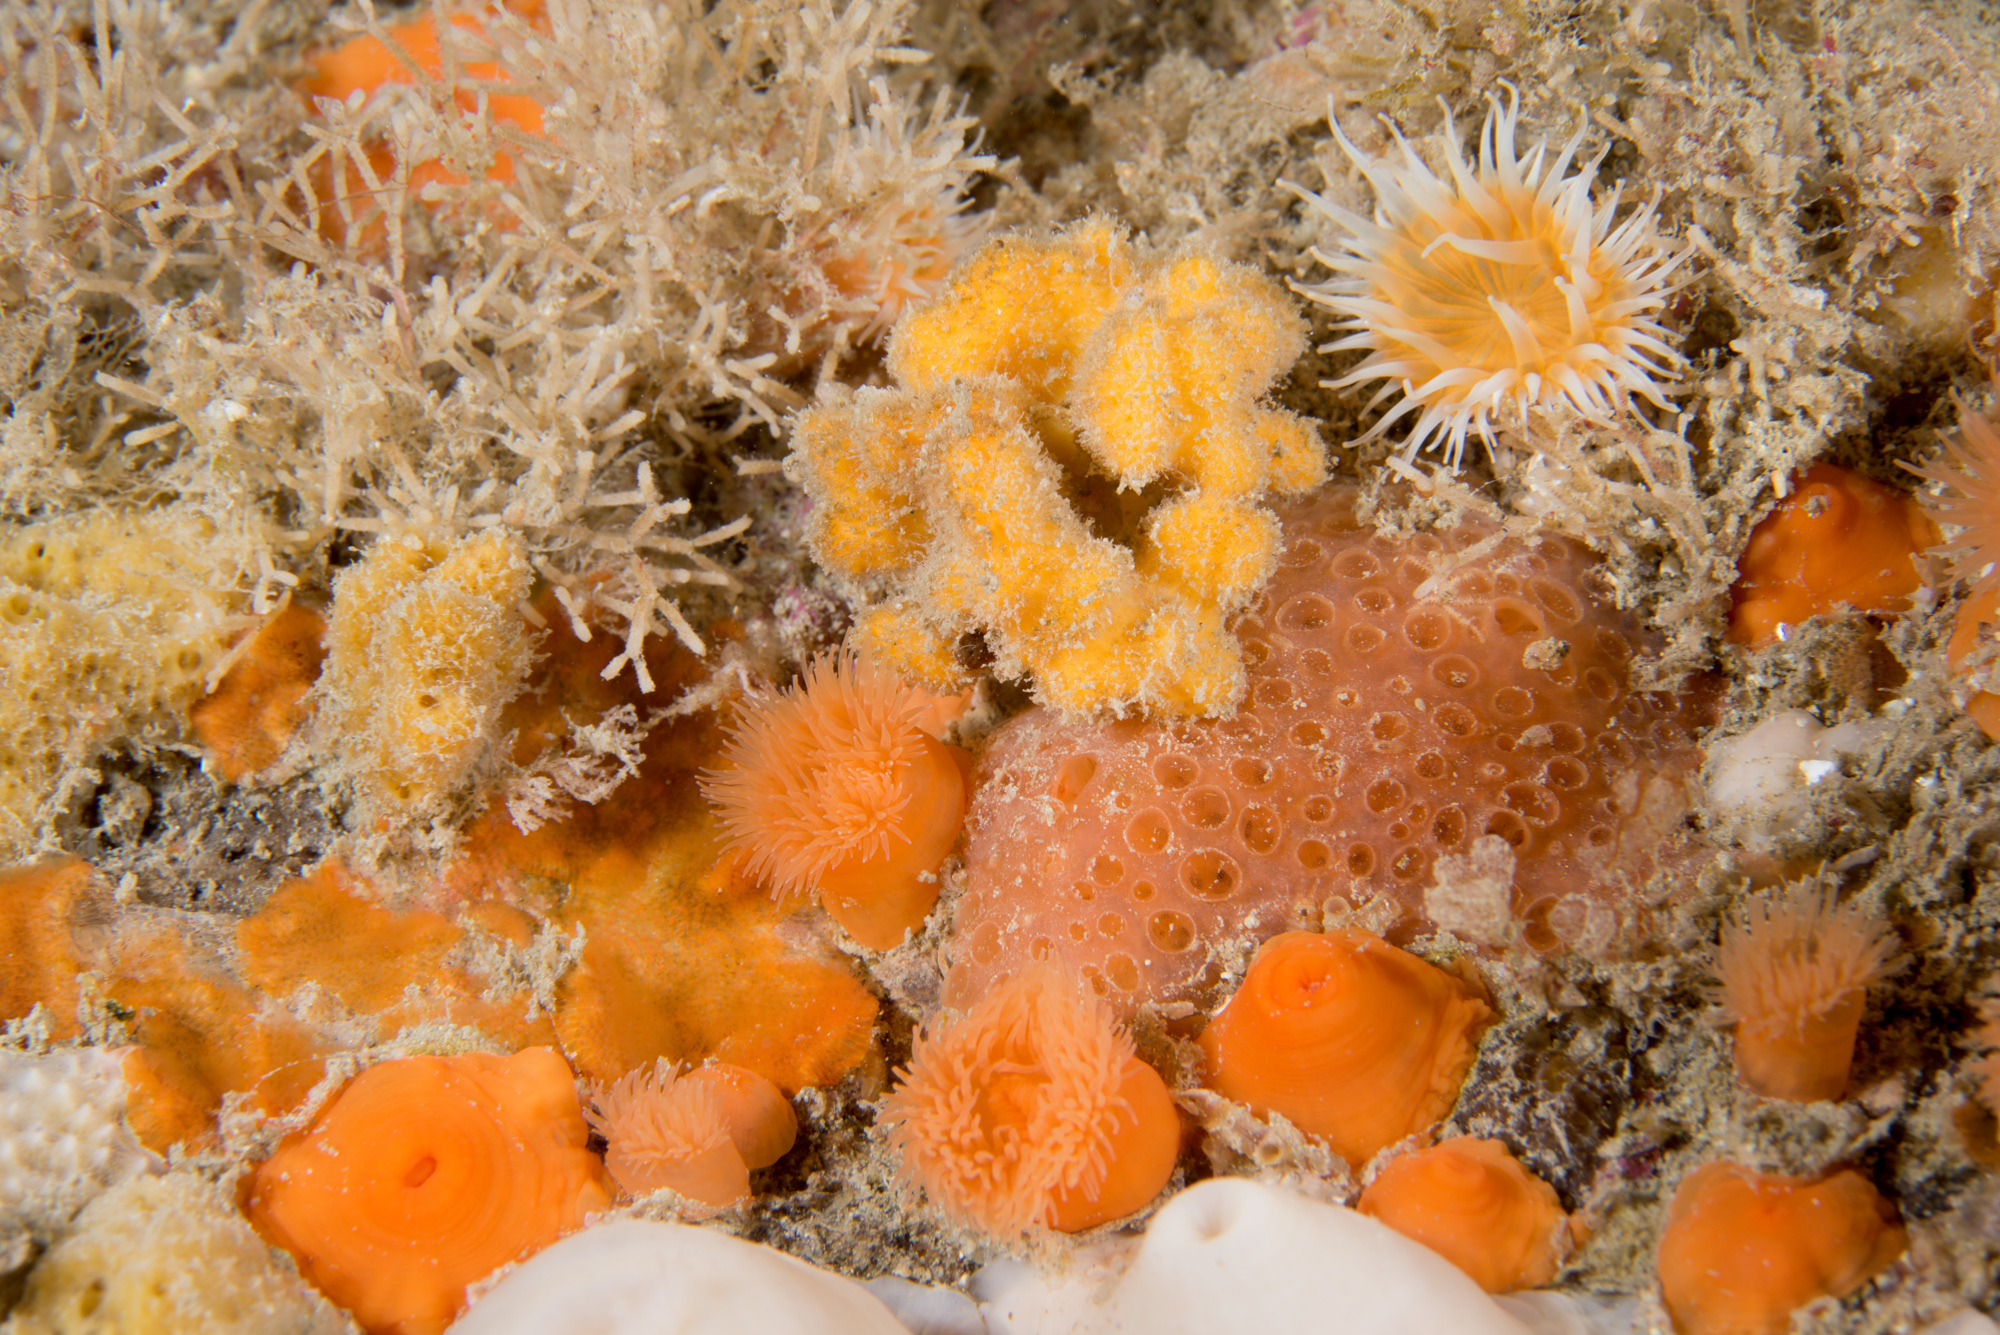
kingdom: Animalia
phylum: Porifera
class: Demospongiae
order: Axinellida
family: Stelligeridae
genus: Stelligera
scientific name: Stelligera montagui
